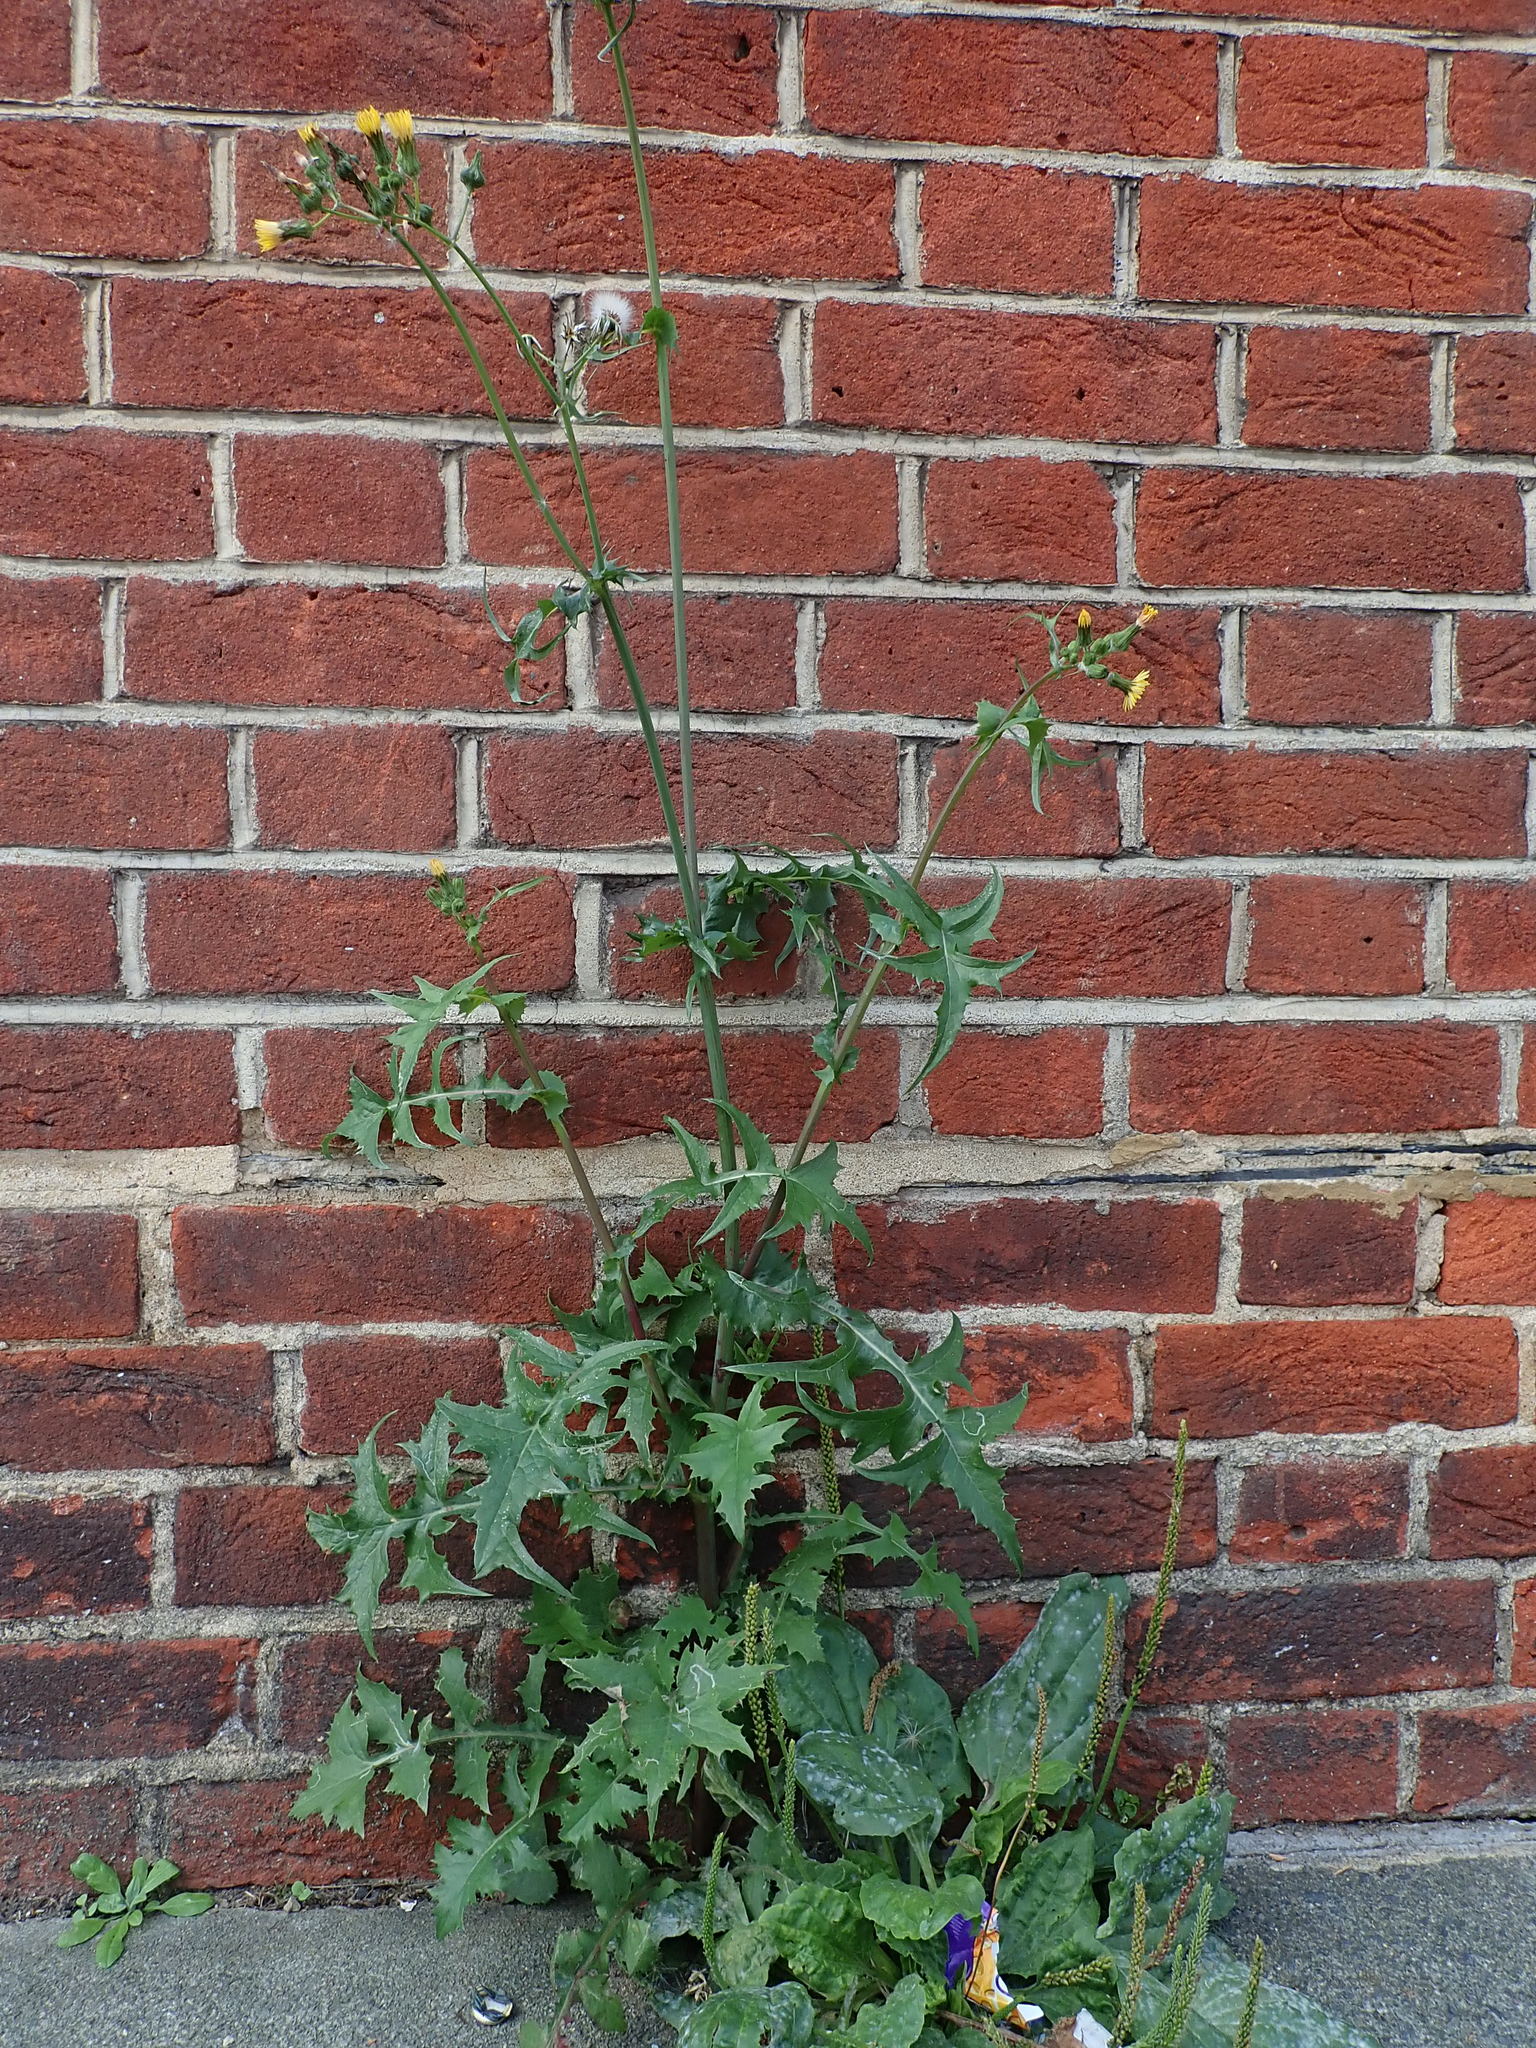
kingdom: Plantae
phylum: Tracheophyta
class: Magnoliopsida
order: Asterales
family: Asteraceae
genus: Sonchus
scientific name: Sonchus oleraceus
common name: Common sowthistle
